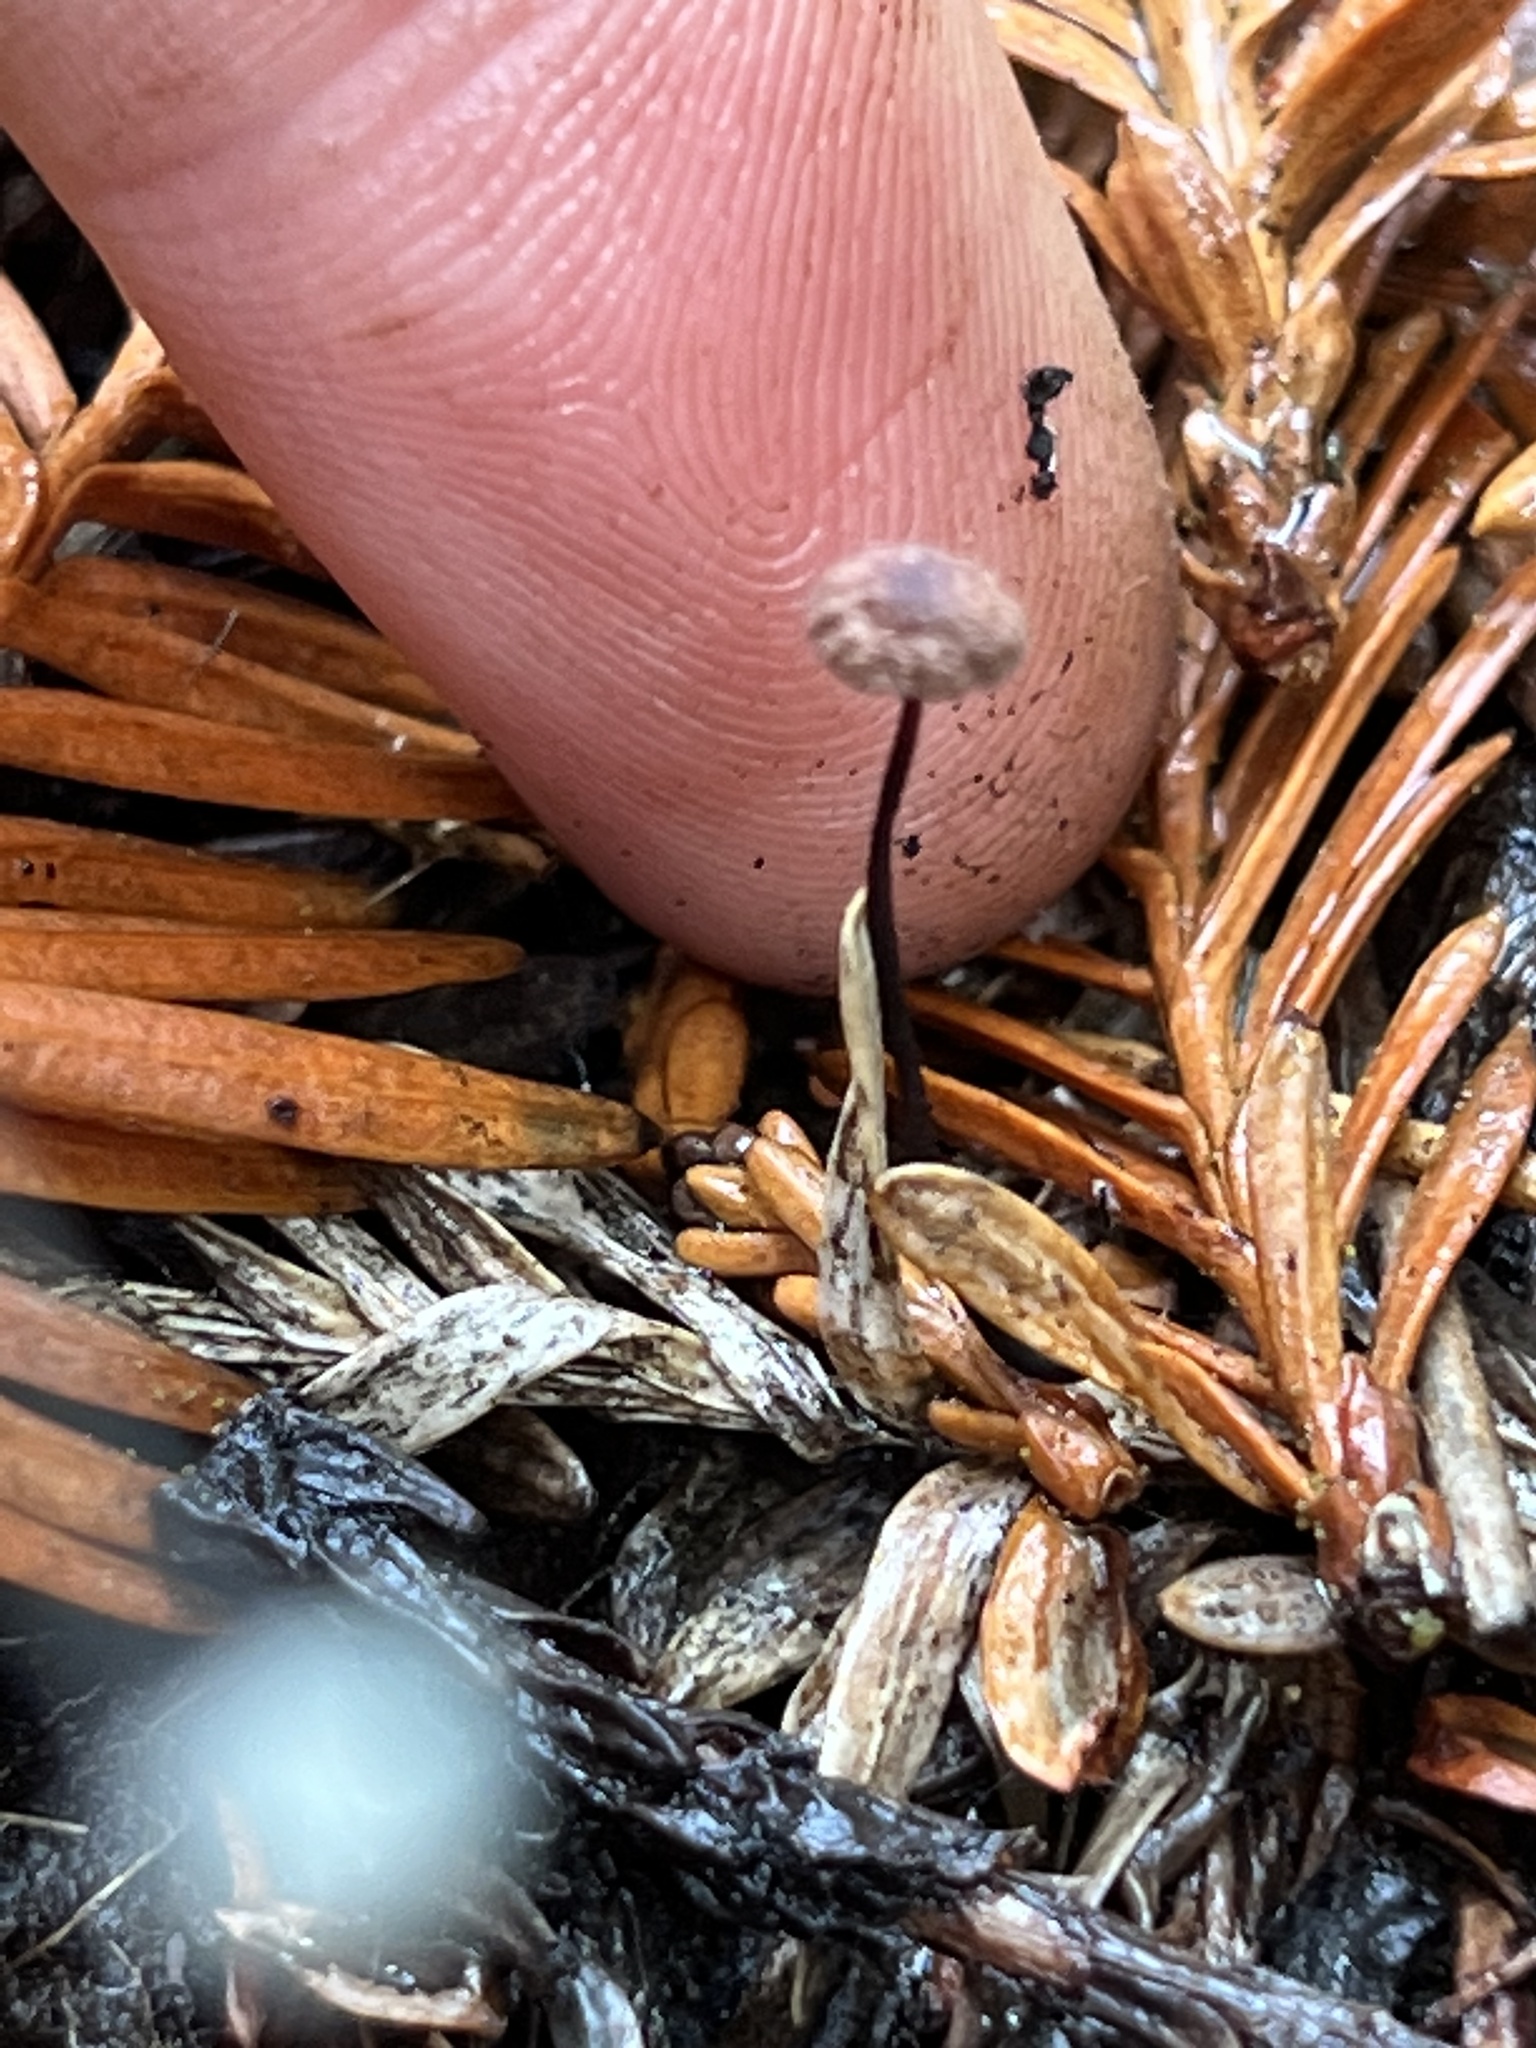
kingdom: Fungi
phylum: Basidiomycota
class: Agaricomycetes
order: Agaricales
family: Omphalotaceae
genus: Gymnopus
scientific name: Gymnopus androsaceus
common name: Horse-hair fungus
